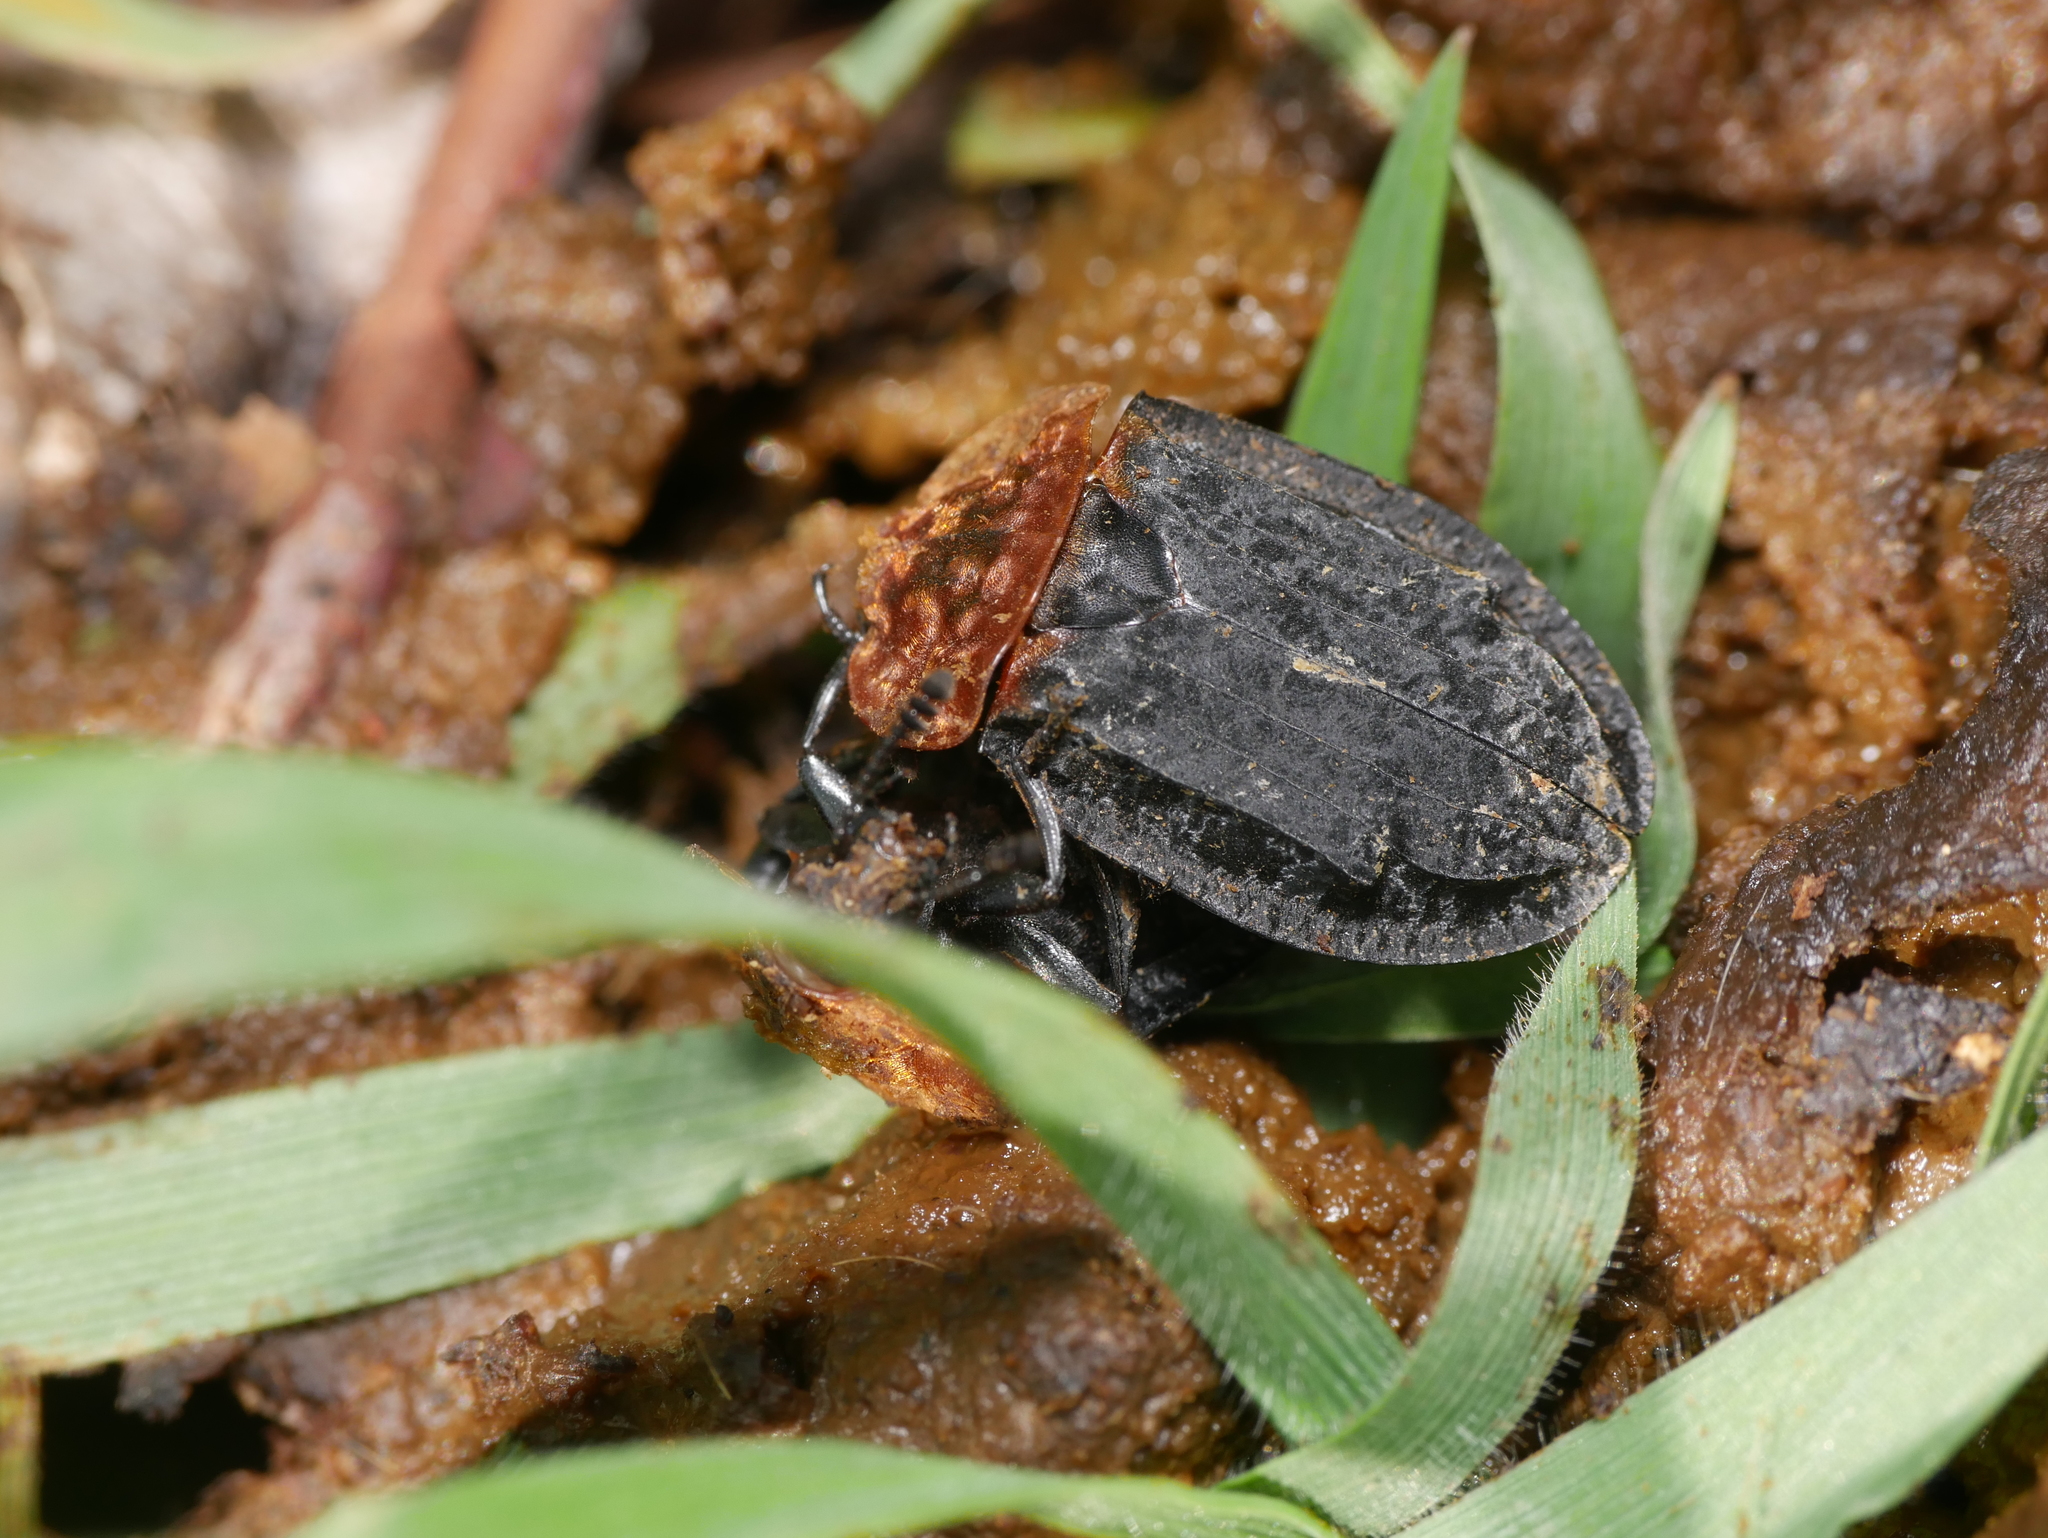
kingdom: Animalia
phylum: Arthropoda
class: Insecta
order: Coleoptera
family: Staphylinidae
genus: Oiceoptoma
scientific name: Oiceoptoma thoracicum
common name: Red-breasted carrion beetle
